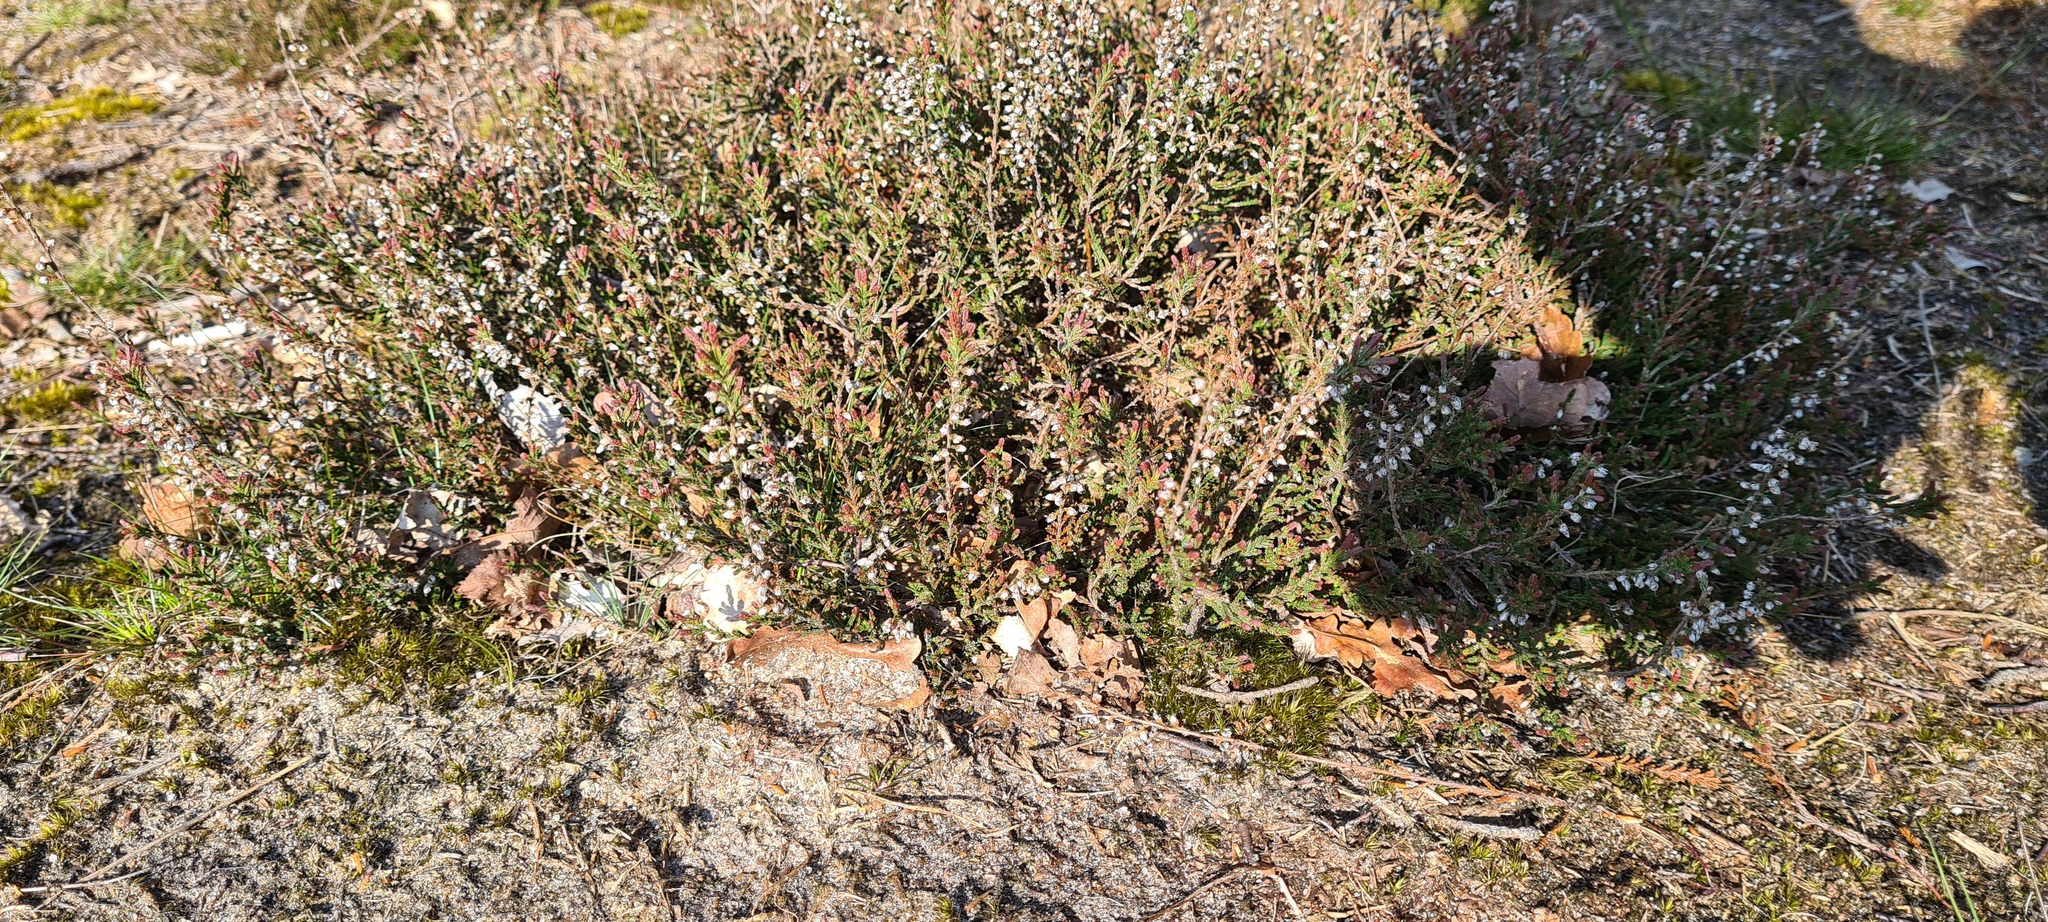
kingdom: Plantae
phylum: Tracheophyta
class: Magnoliopsida
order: Ericales
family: Ericaceae
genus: Calluna
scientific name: Calluna vulgaris
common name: Heather
